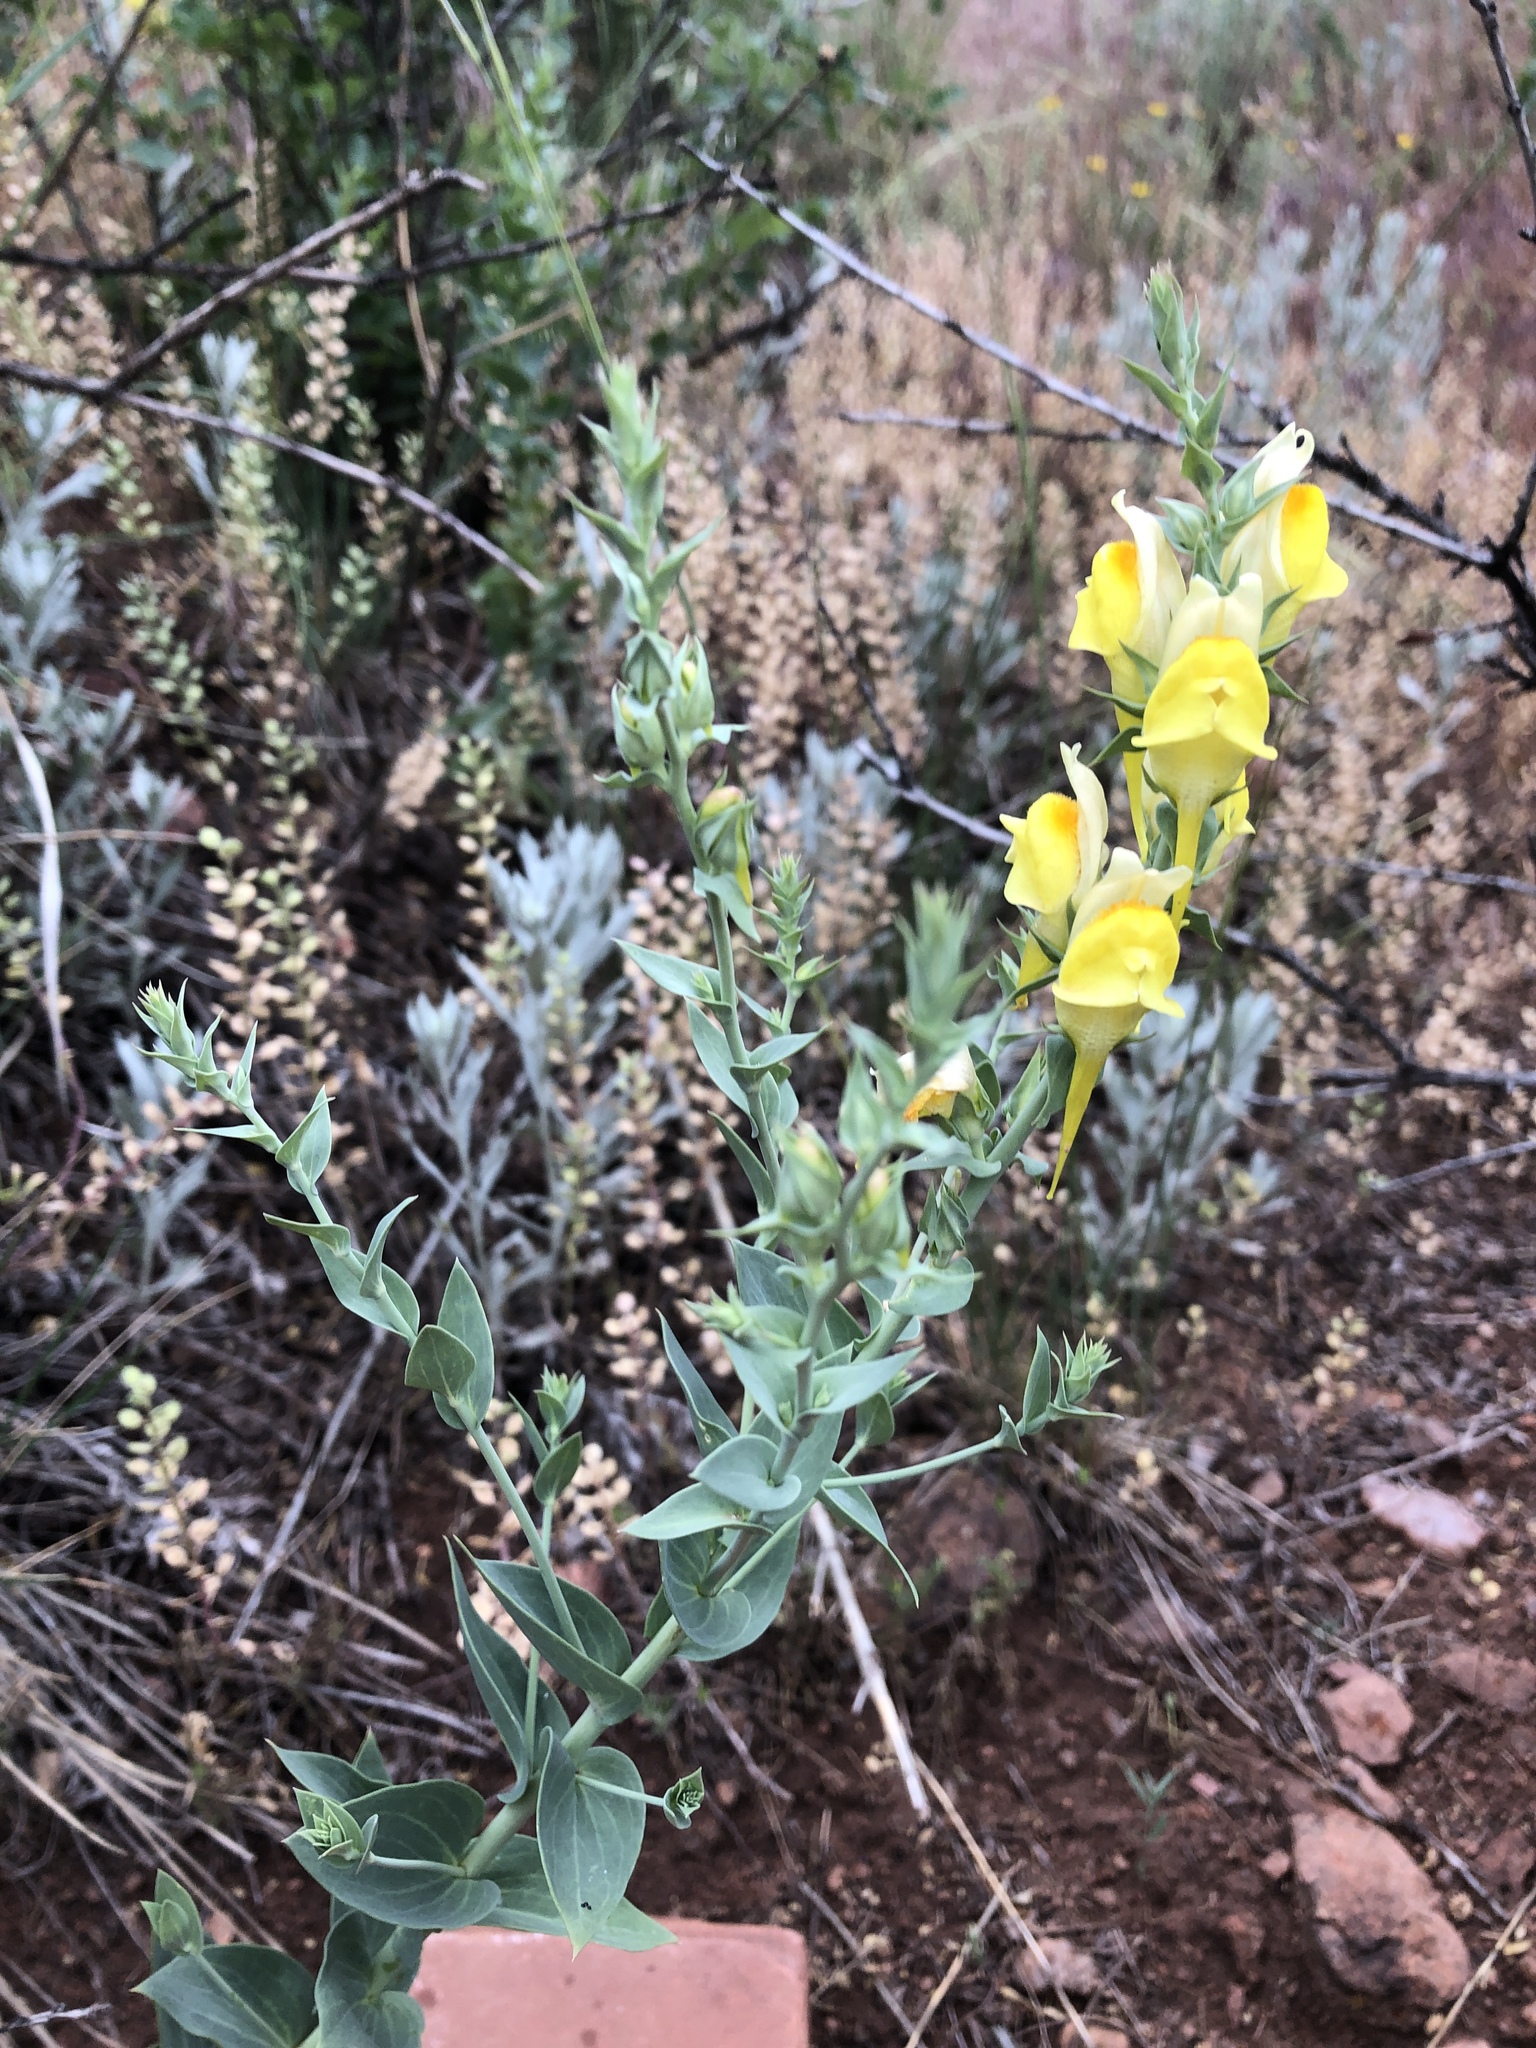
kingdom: Plantae
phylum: Tracheophyta
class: Magnoliopsida
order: Lamiales
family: Plantaginaceae
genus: Linaria
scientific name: Linaria dalmatica
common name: Dalmatian toadflax
